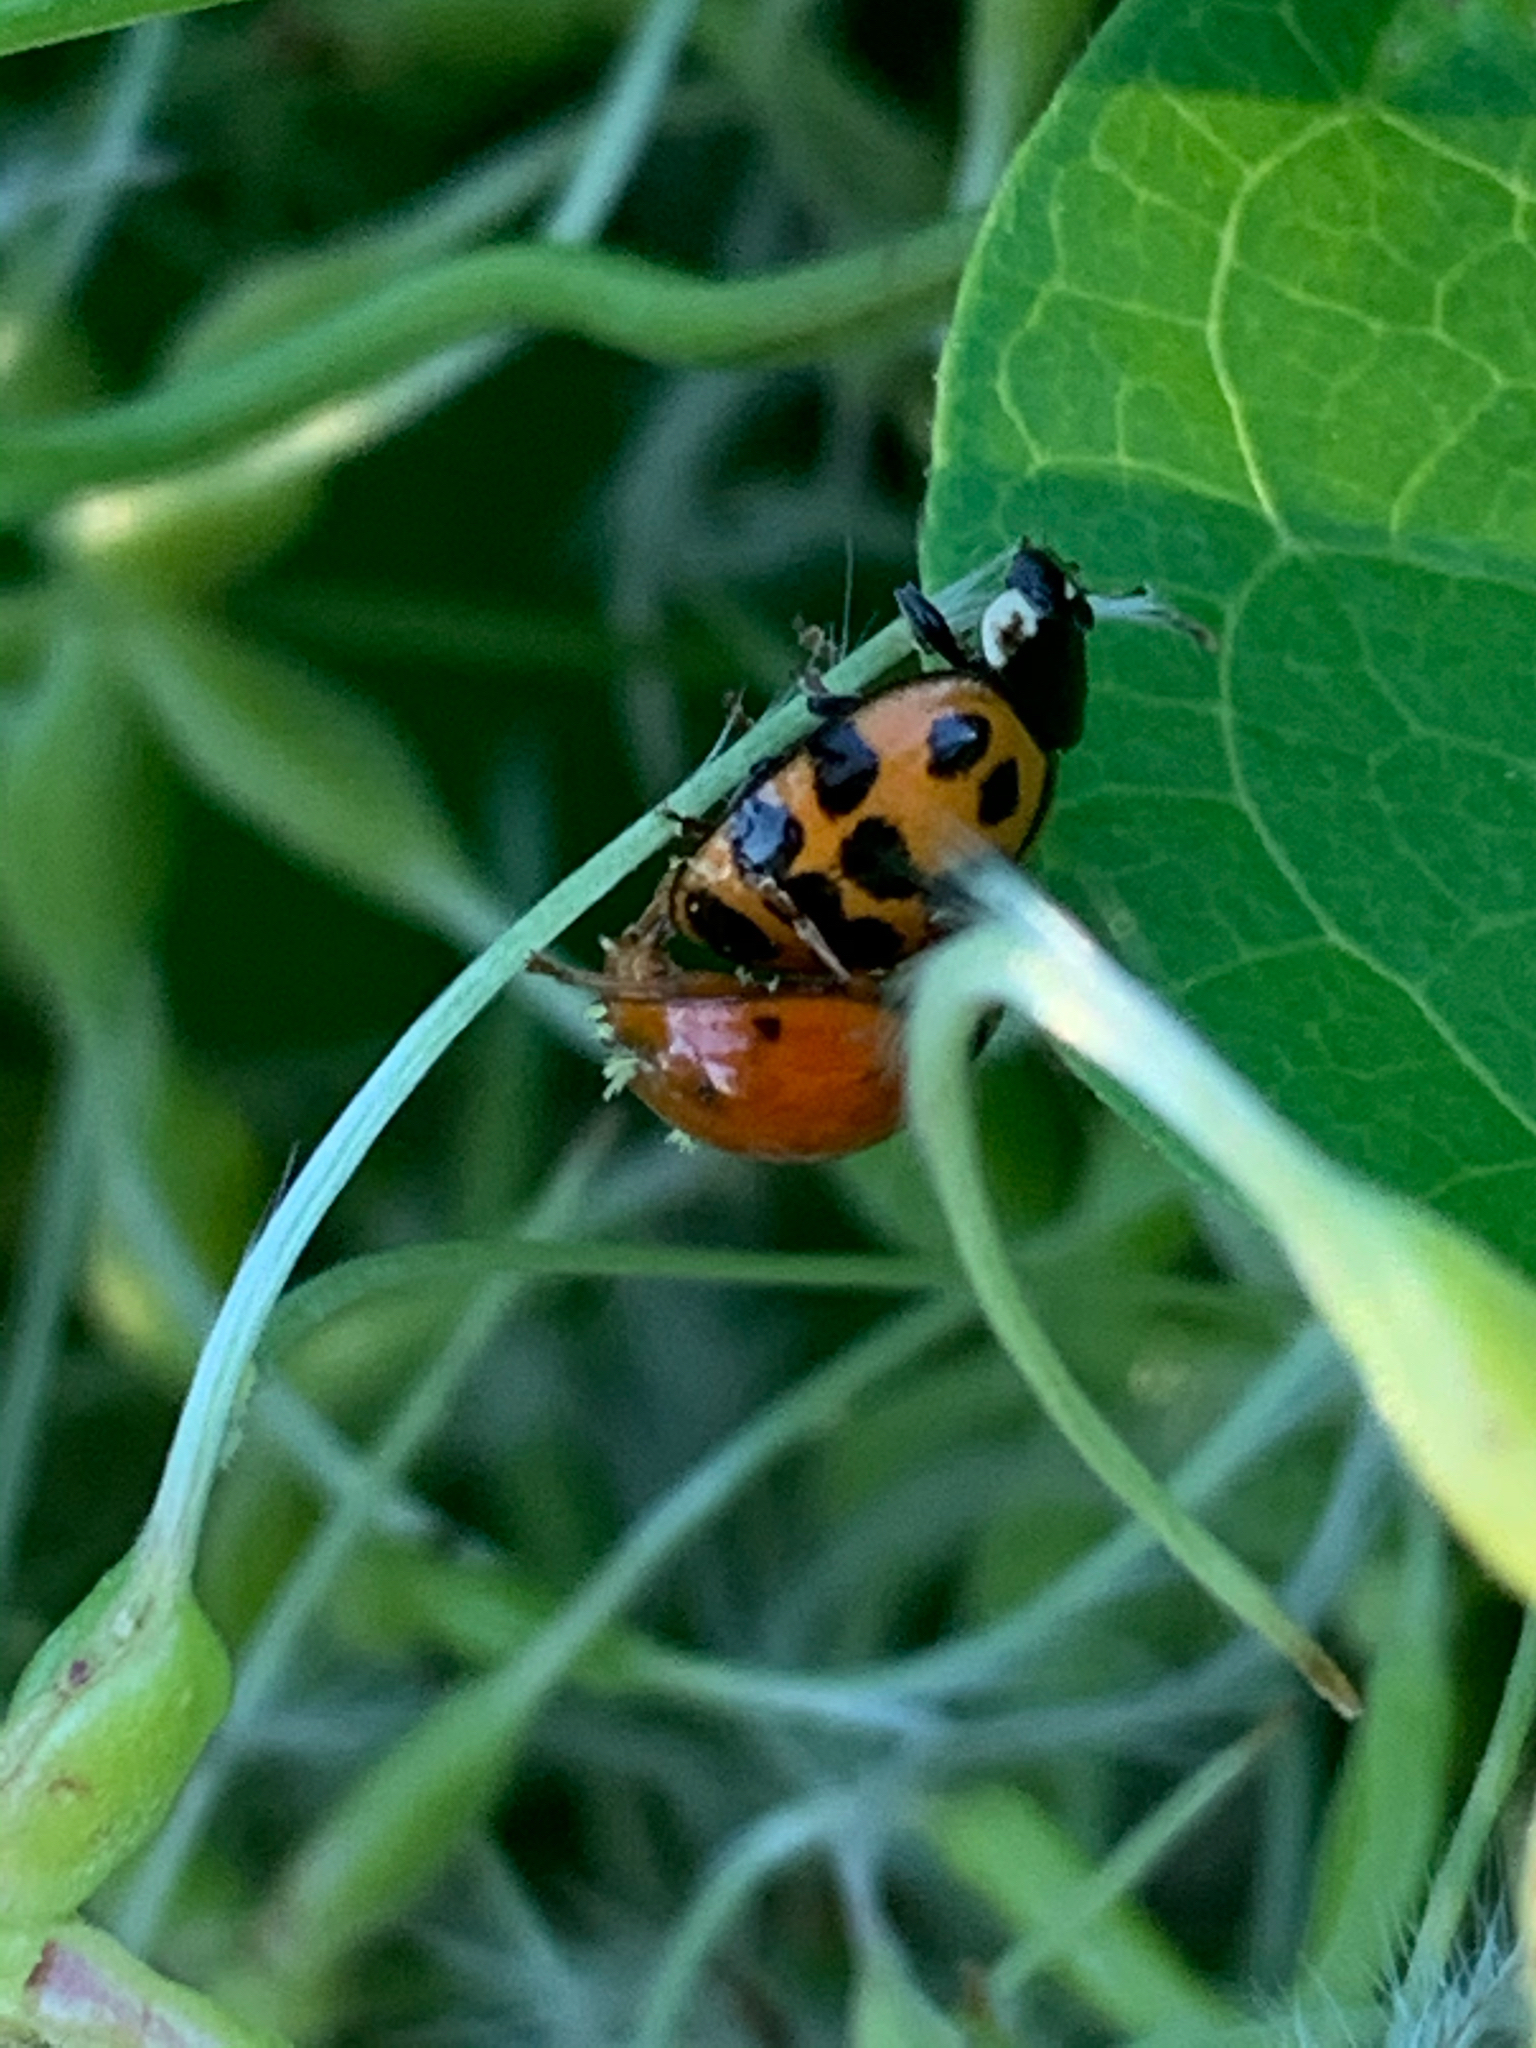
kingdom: Animalia
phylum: Arthropoda
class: Insecta
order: Coleoptera
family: Coccinellidae
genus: Harmonia
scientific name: Harmonia axyridis
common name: Harlequin ladybird
